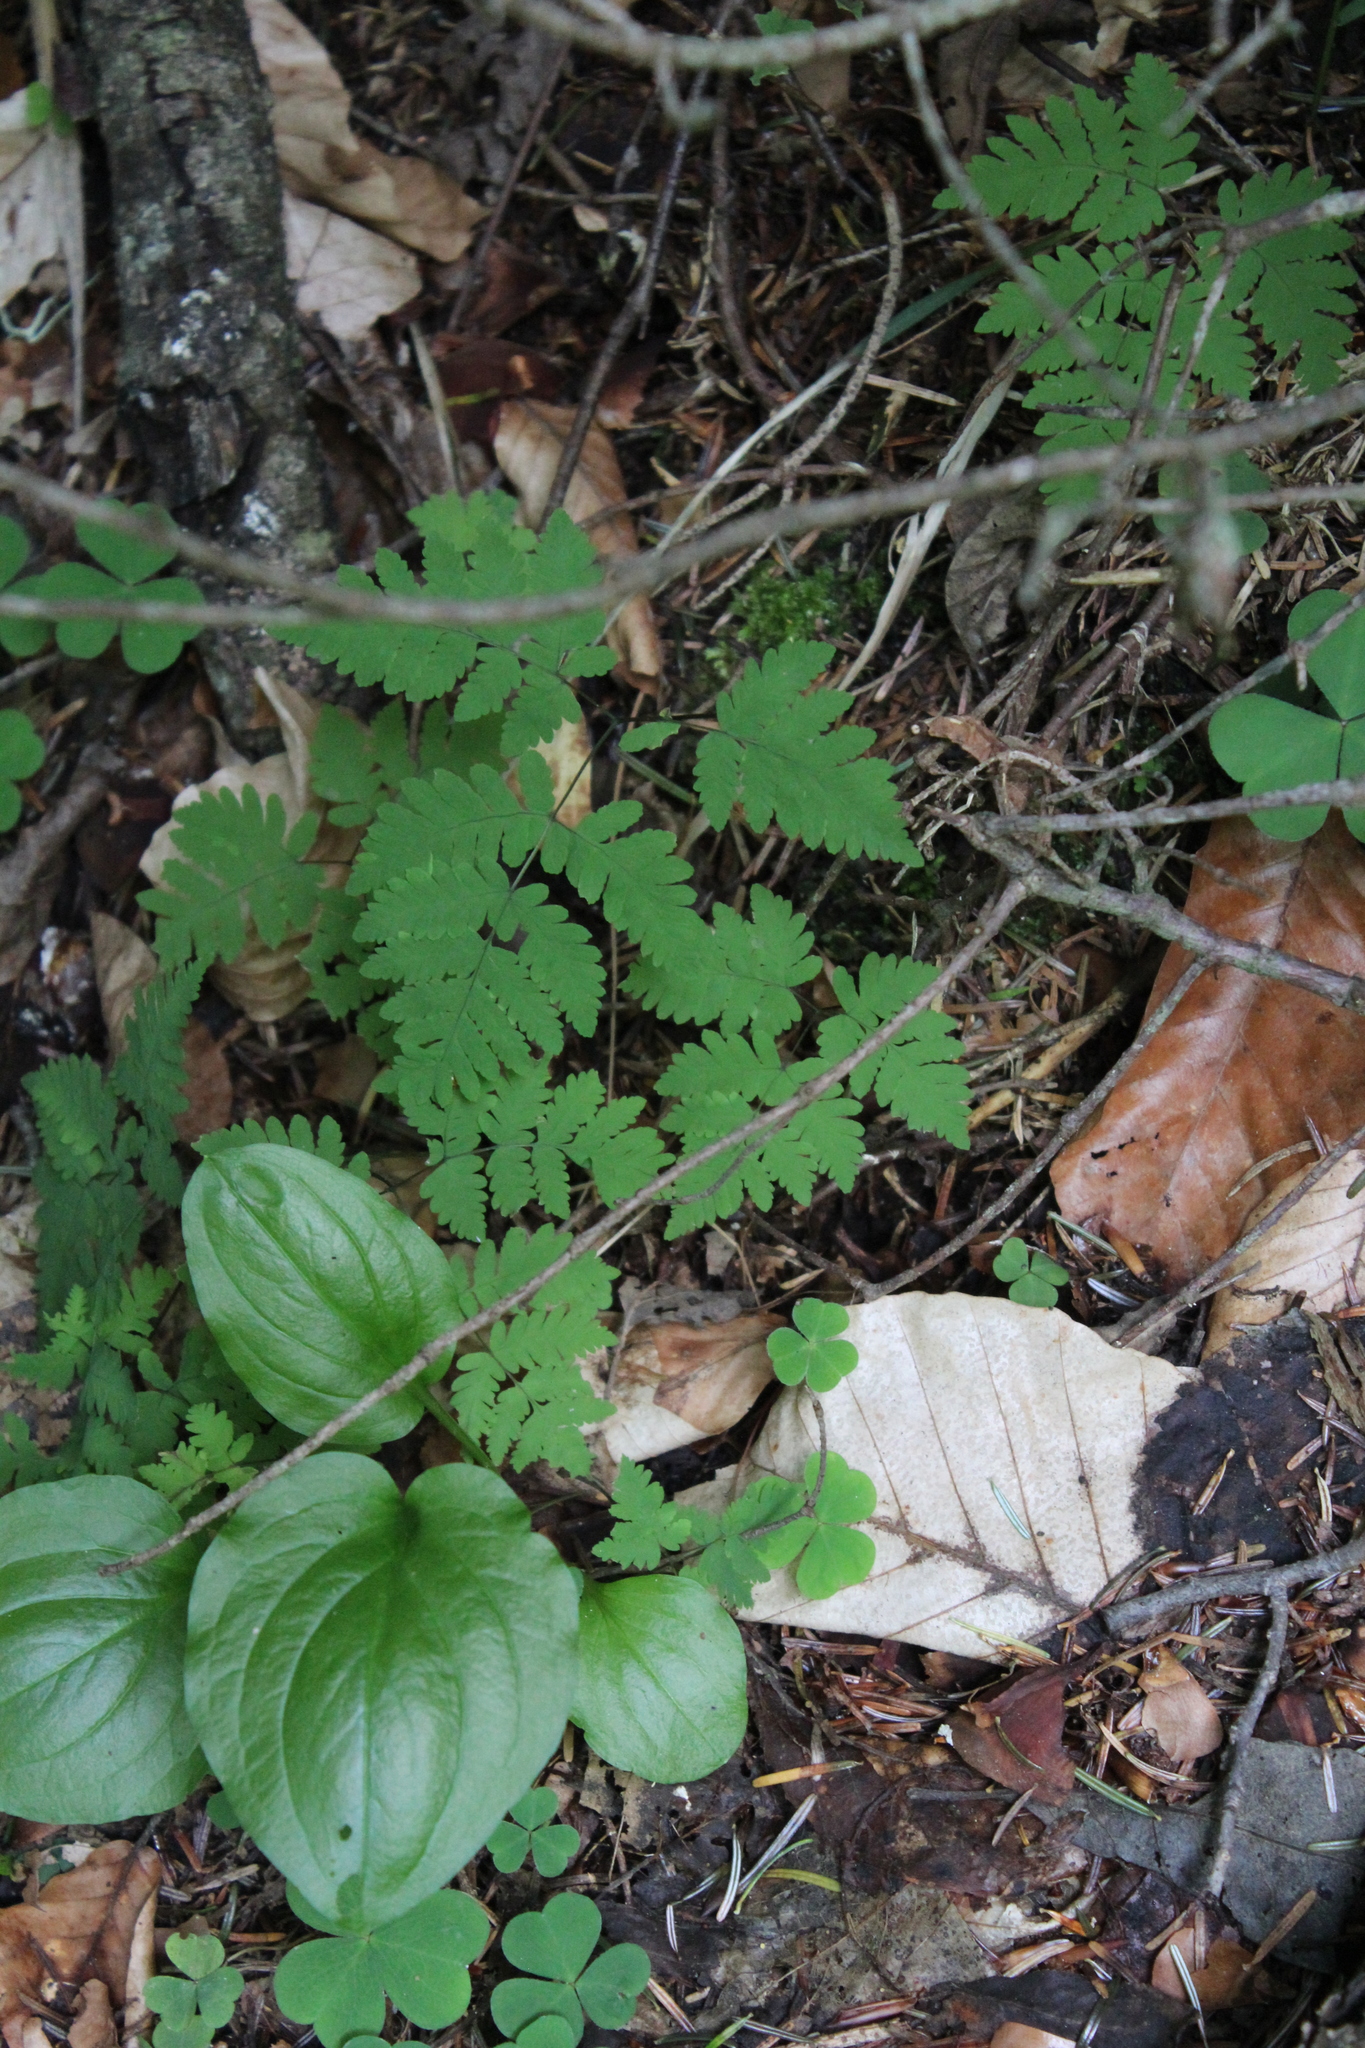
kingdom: Plantae
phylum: Tracheophyta
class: Polypodiopsida
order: Polypodiales
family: Cystopteridaceae
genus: Gymnocarpium
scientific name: Gymnocarpium dryopteris
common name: Oak fern
